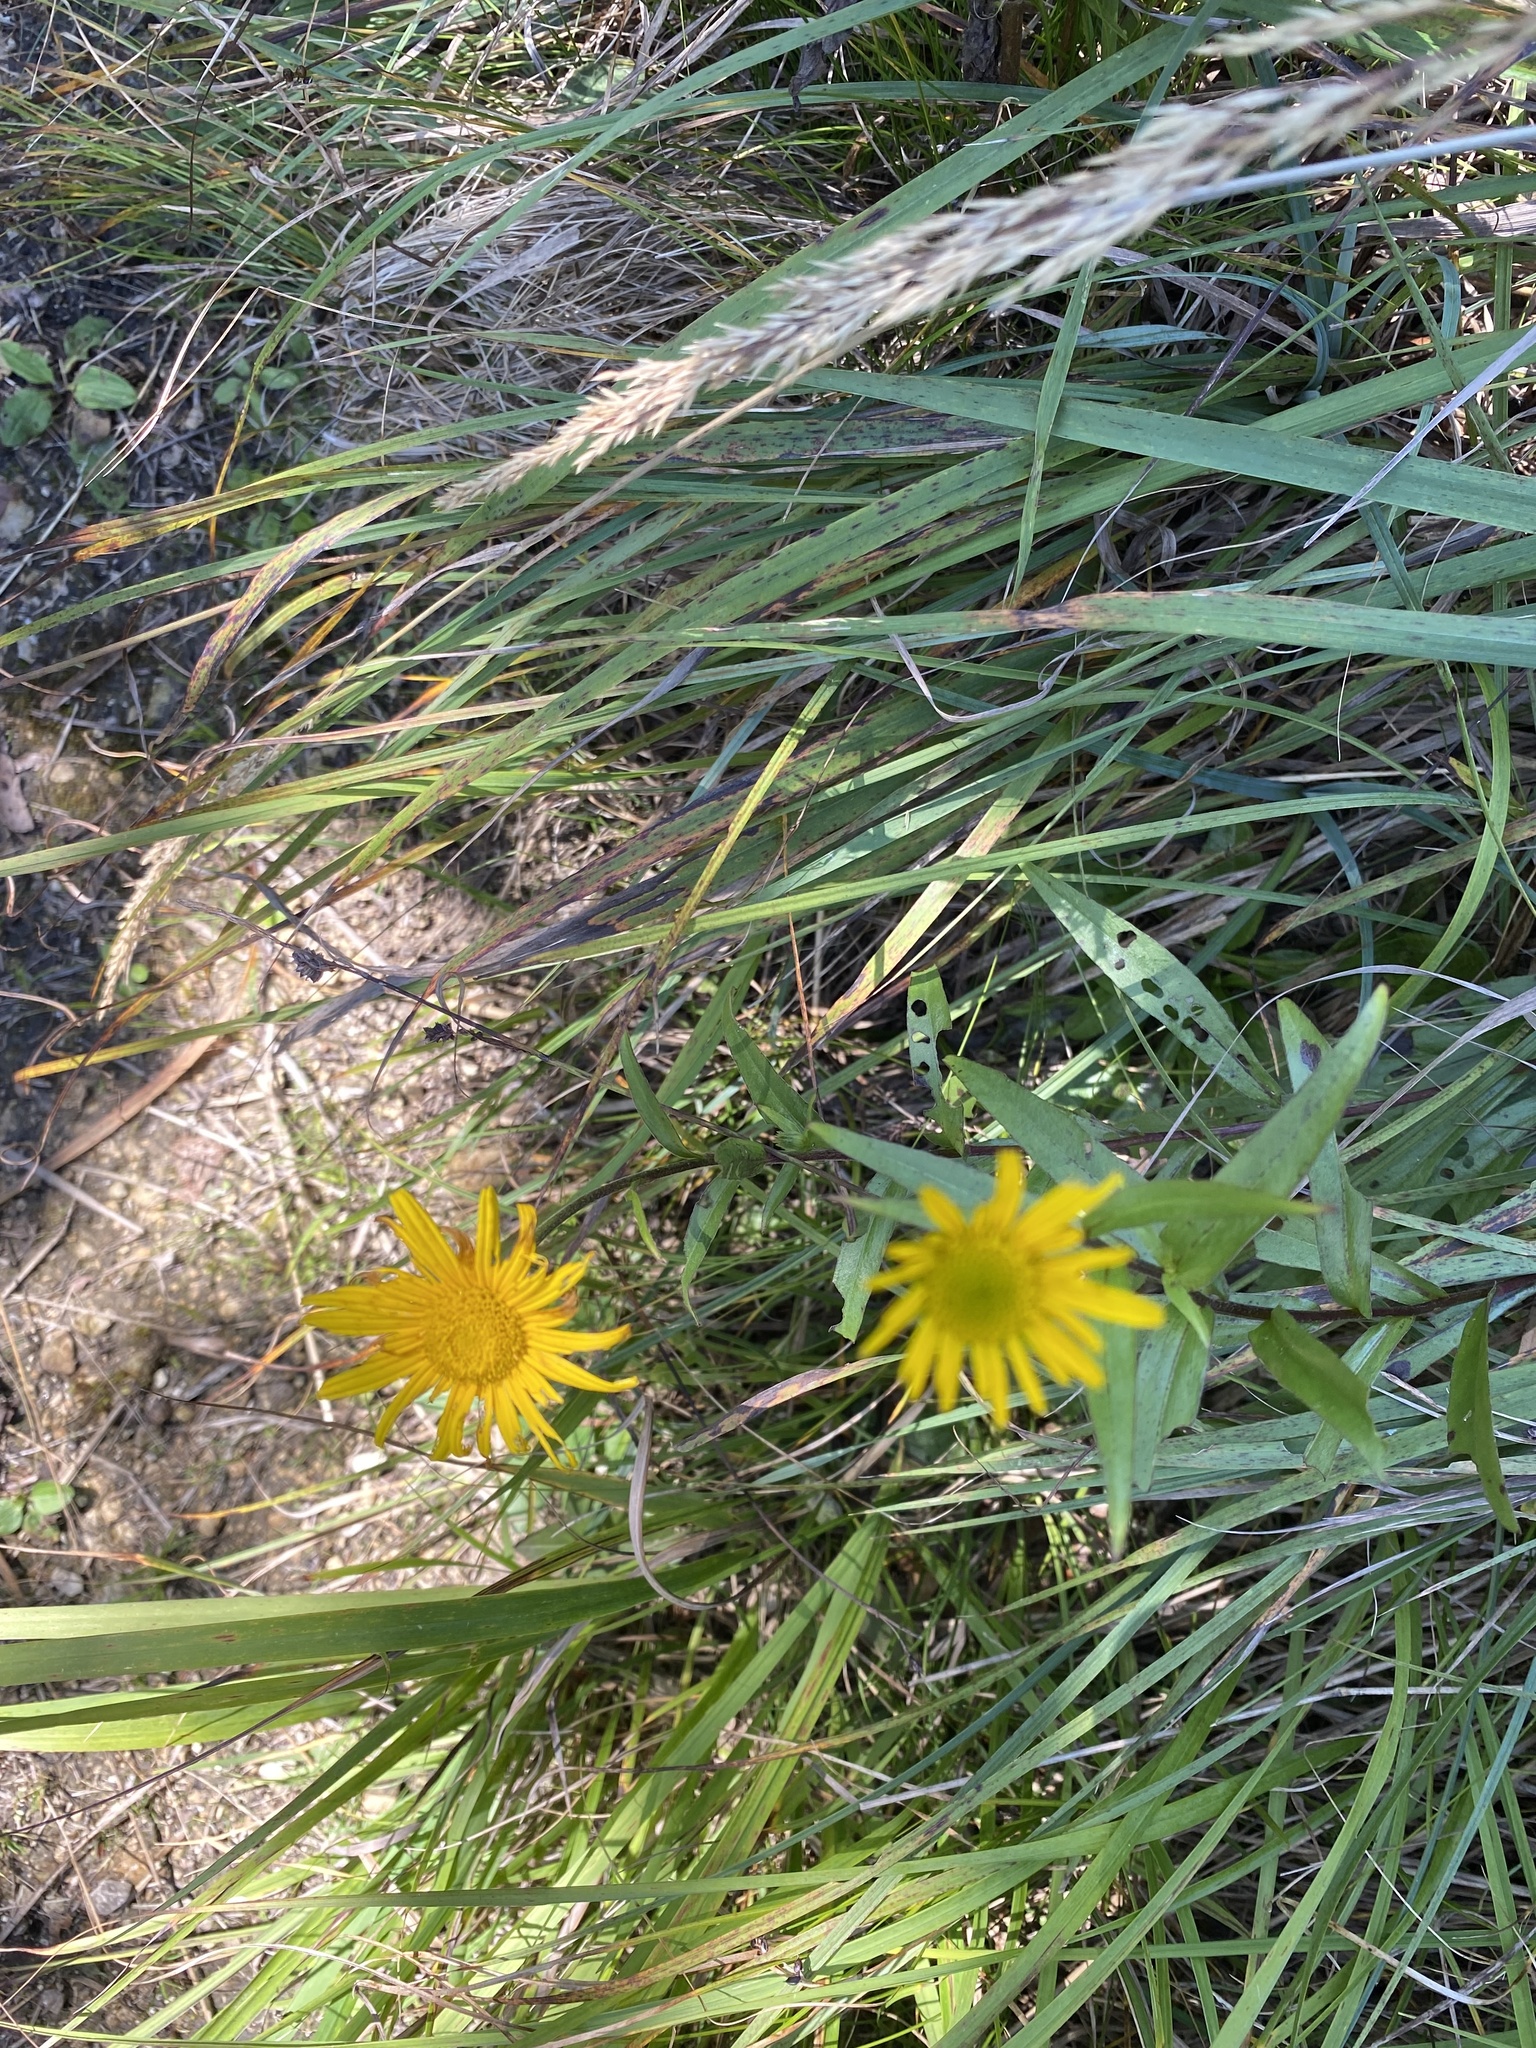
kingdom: Plantae
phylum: Tracheophyta
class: Magnoliopsida
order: Asterales
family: Asteraceae
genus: Buphthalmum
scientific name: Buphthalmum salicifolium
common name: Willow-leaved yellow-oxeye
